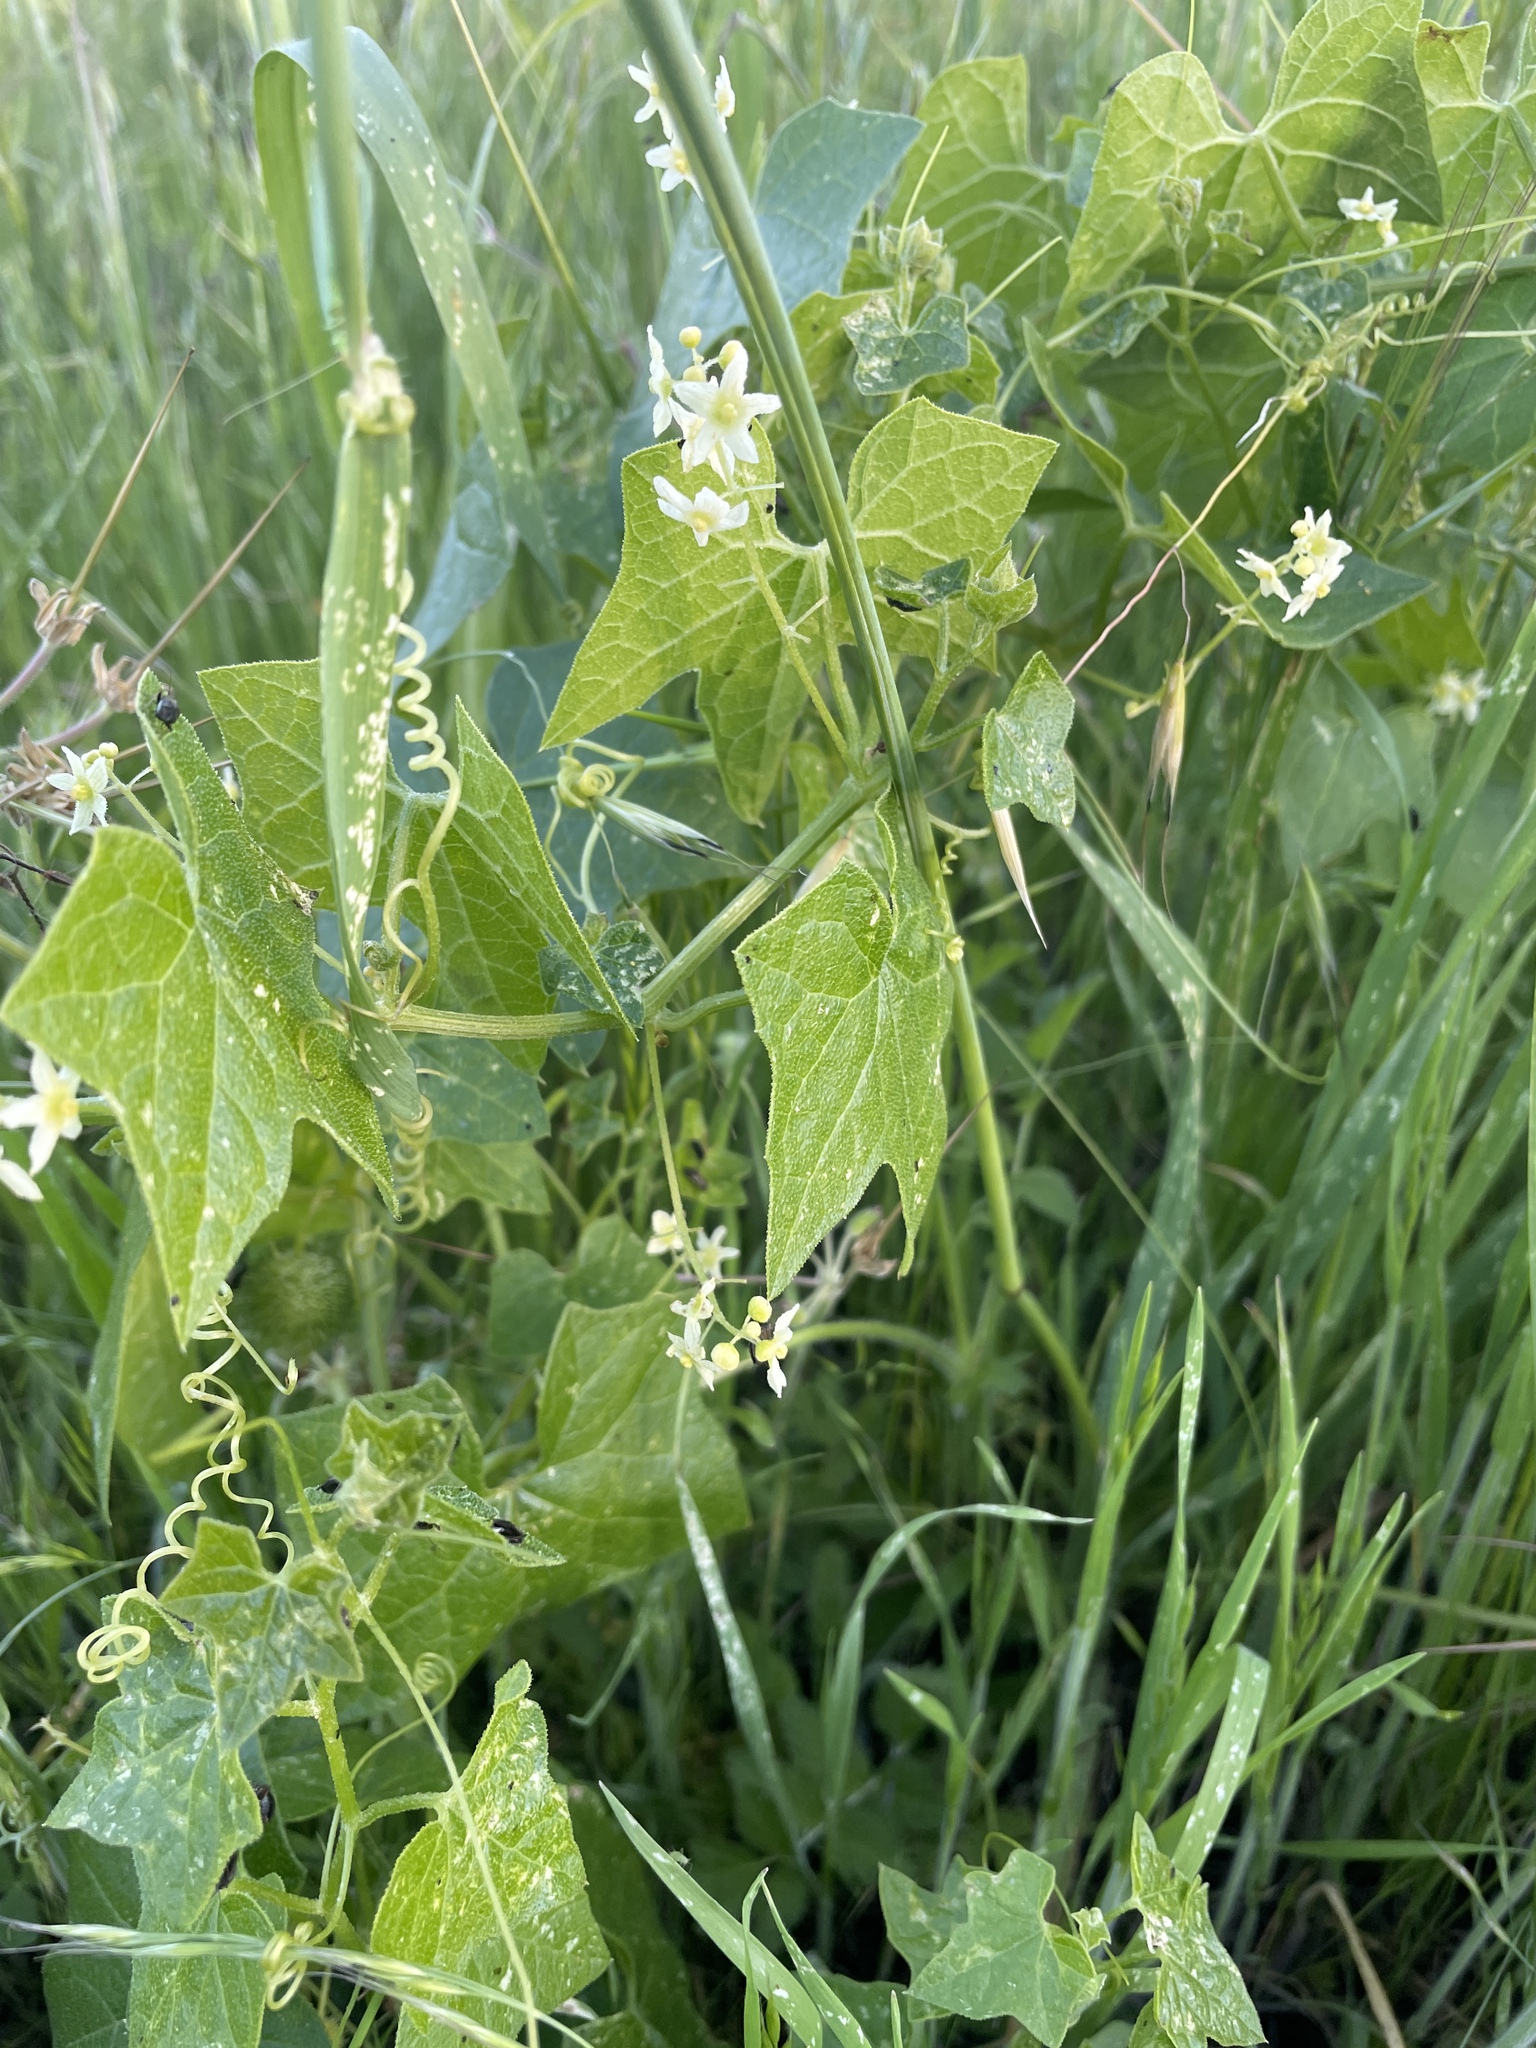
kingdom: Plantae
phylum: Tracheophyta
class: Magnoliopsida
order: Cucurbitales
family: Cucurbitaceae
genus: Marah
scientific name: Marah fabacea
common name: California manroot
